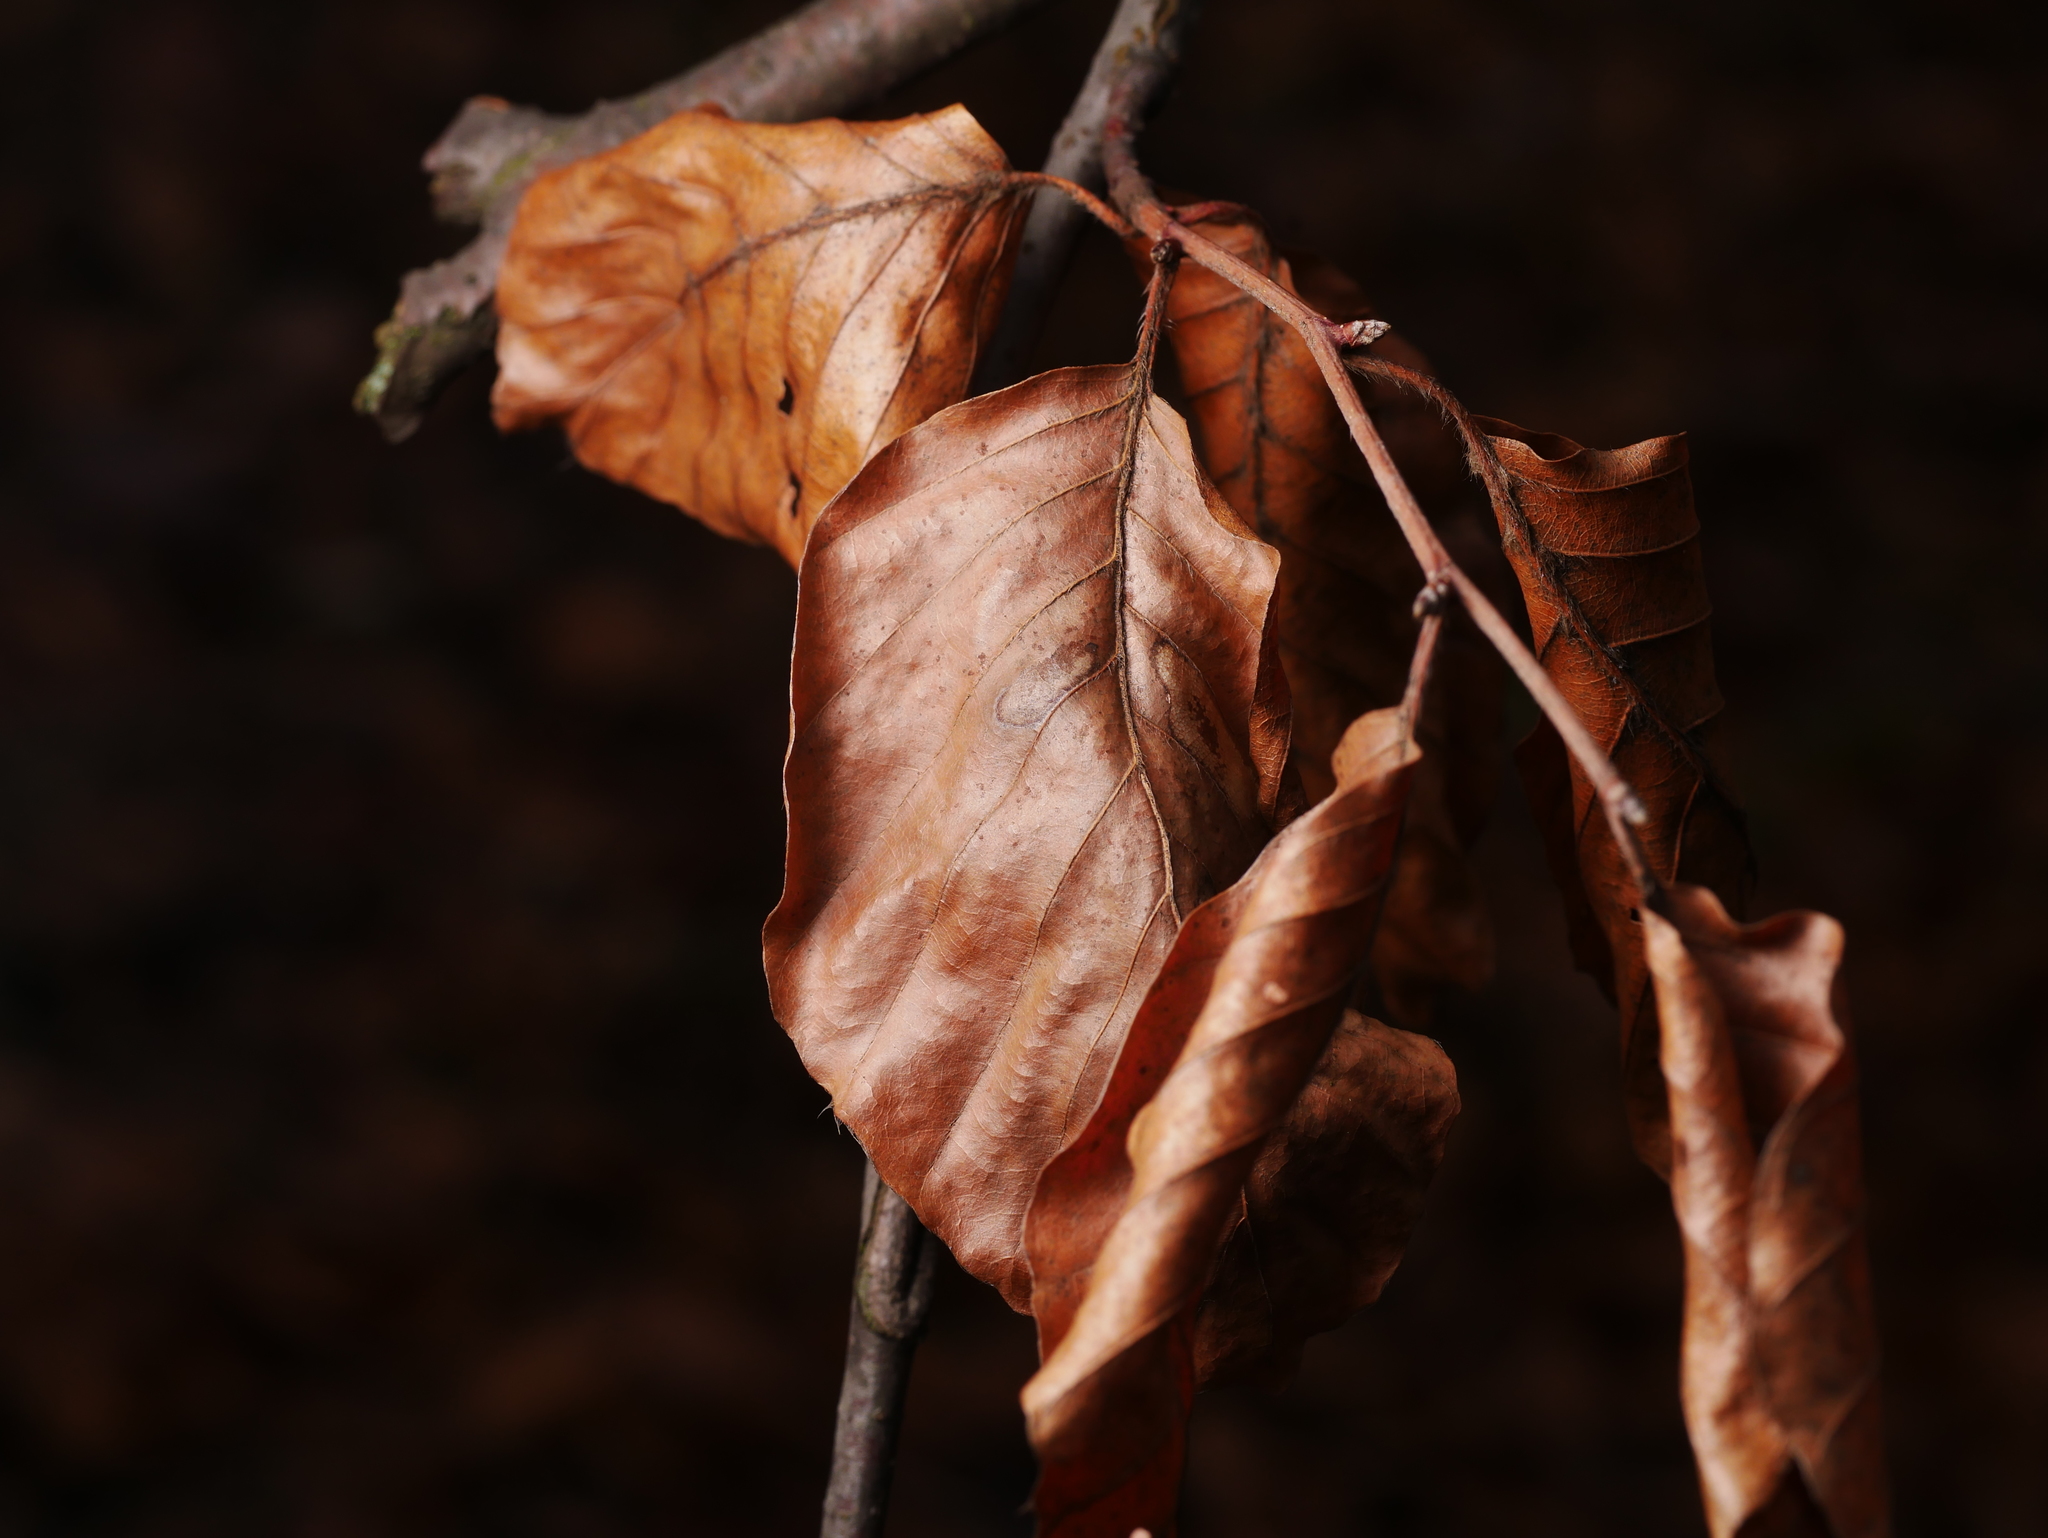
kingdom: Plantae
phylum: Tracheophyta
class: Magnoliopsida
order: Fagales
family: Fagaceae
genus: Fagus
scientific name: Fagus sylvatica
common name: Beech
